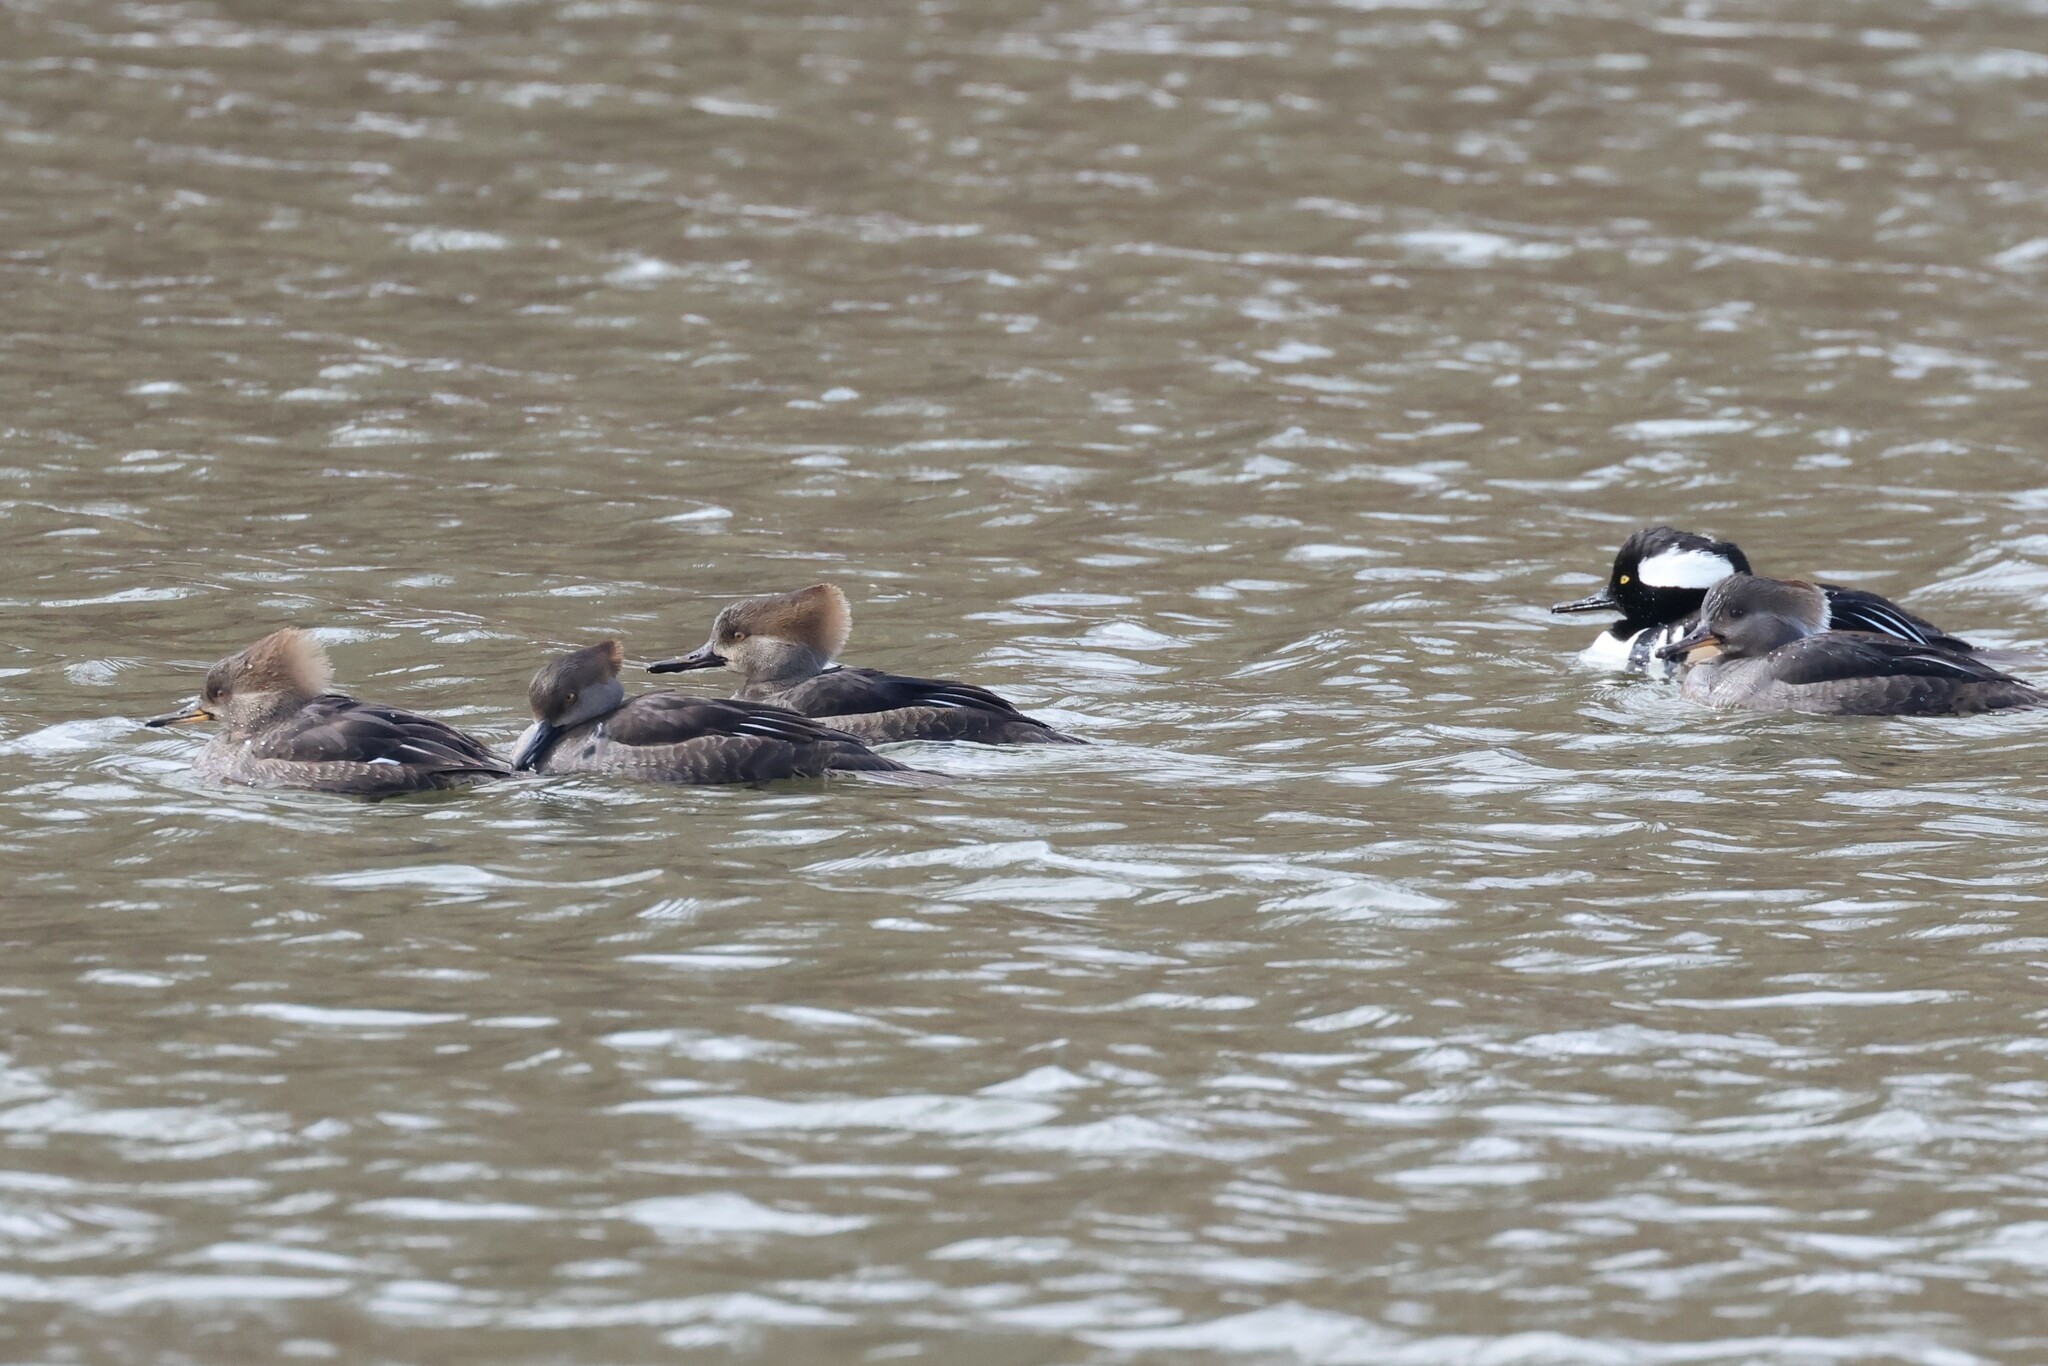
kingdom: Animalia
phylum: Chordata
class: Aves
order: Anseriformes
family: Anatidae
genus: Lophodytes
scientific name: Lophodytes cucullatus
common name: Hooded merganser
